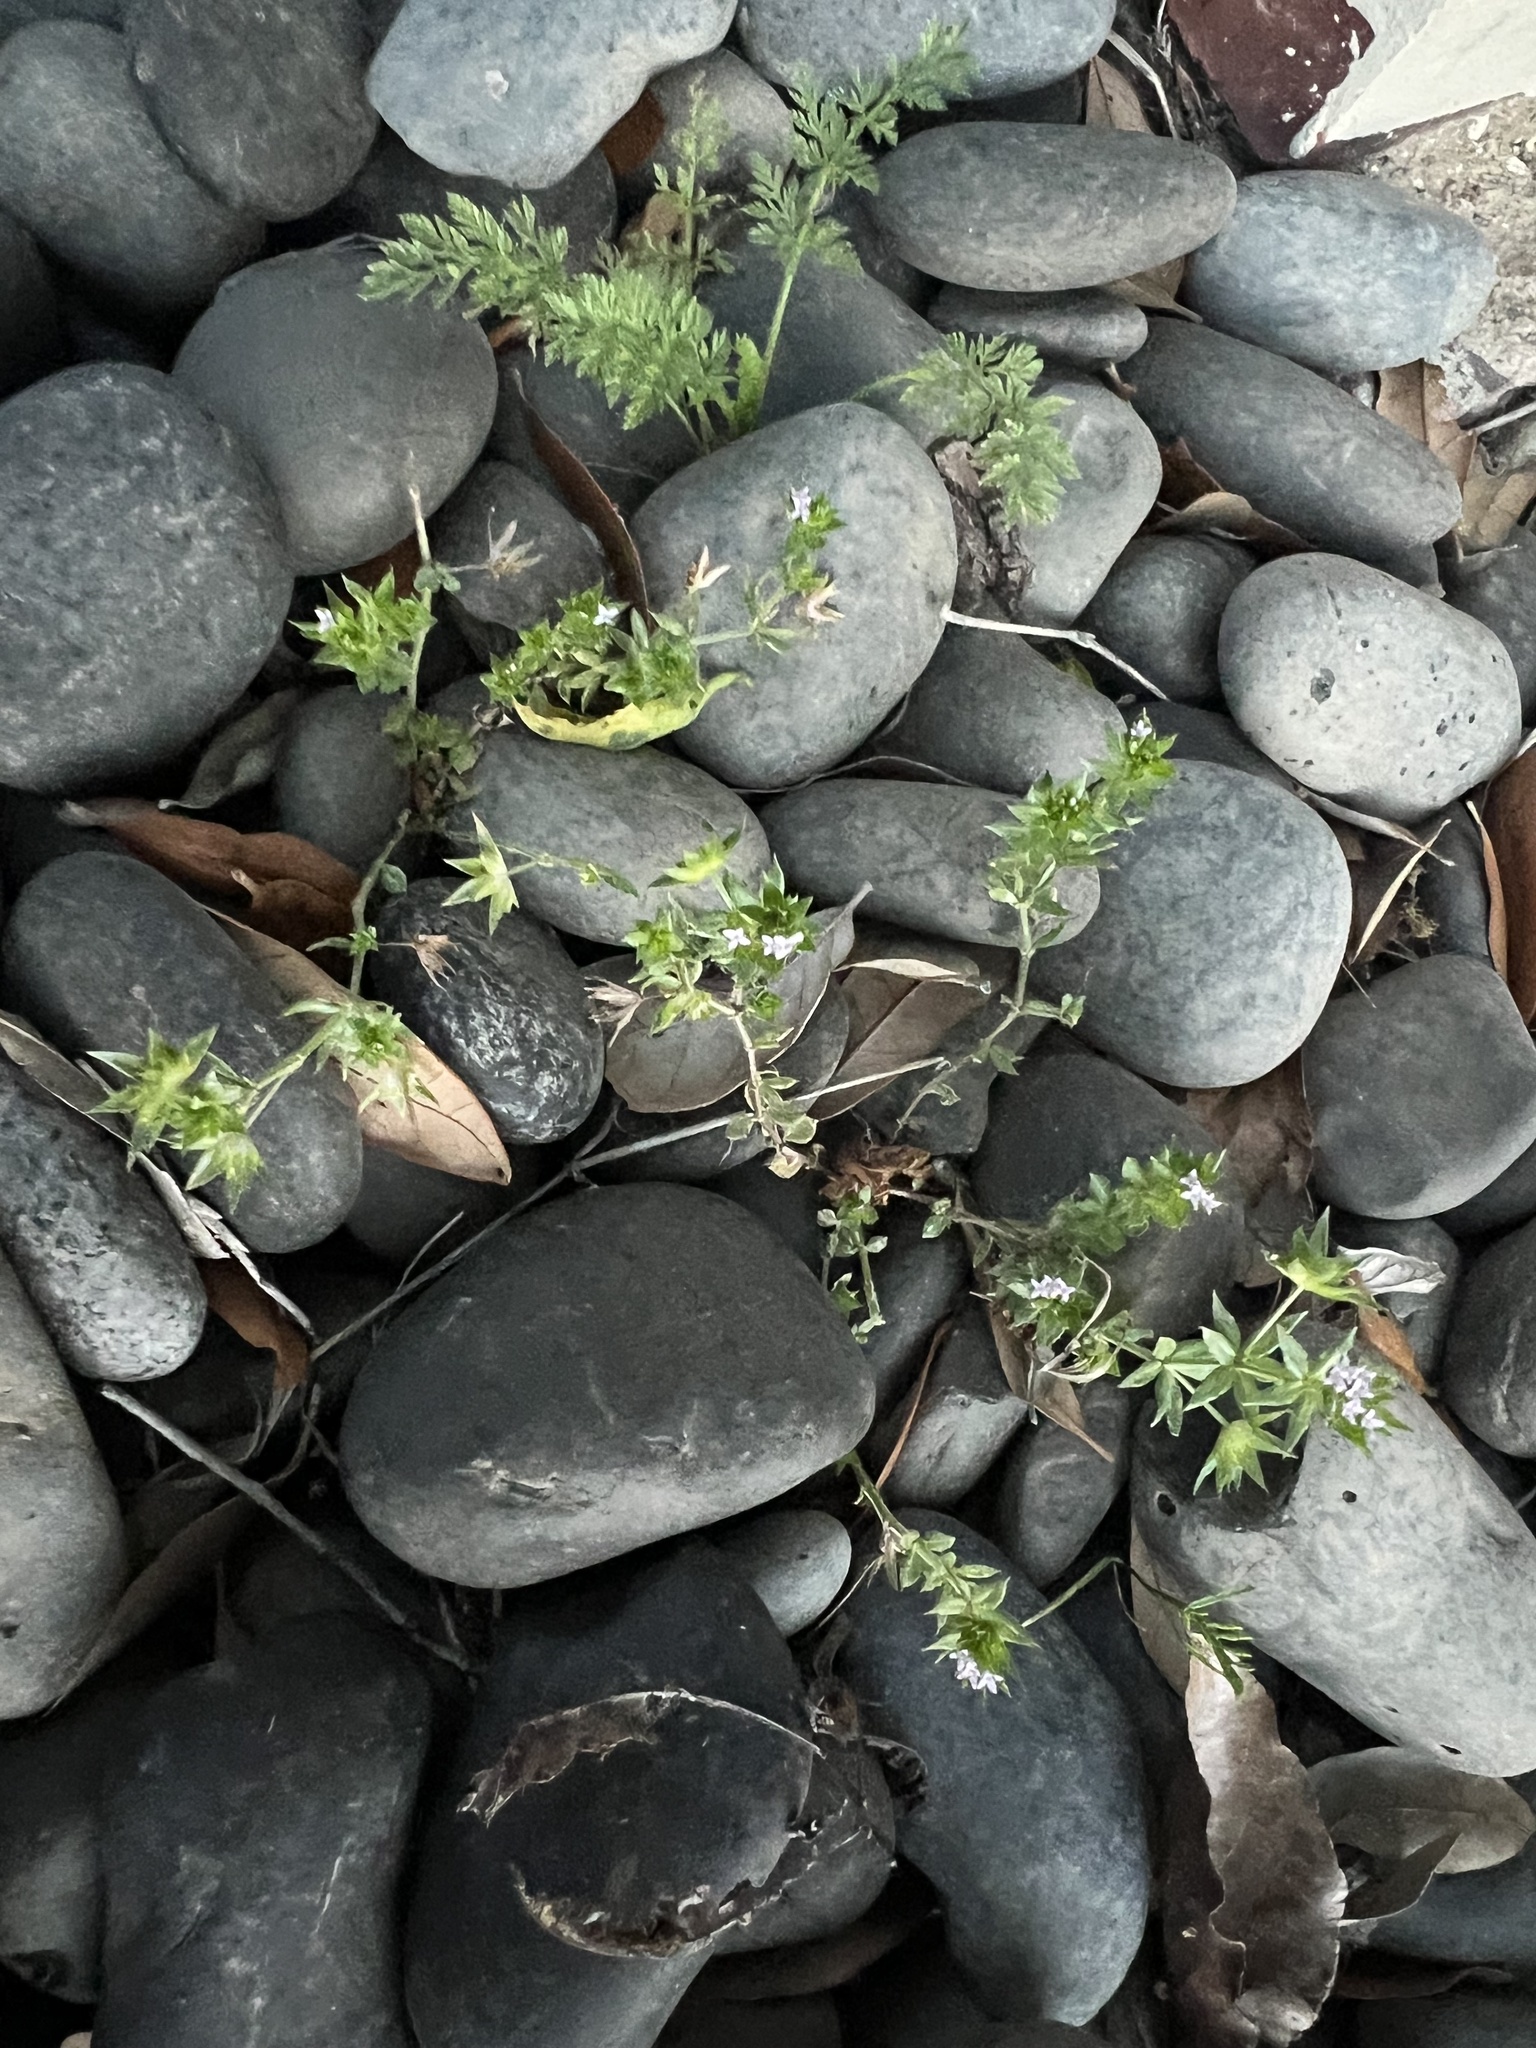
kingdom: Plantae
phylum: Tracheophyta
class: Magnoliopsida
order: Gentianales
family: Rubiaceae
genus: Sherardia
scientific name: Sherardia arvensis
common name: Field madder
